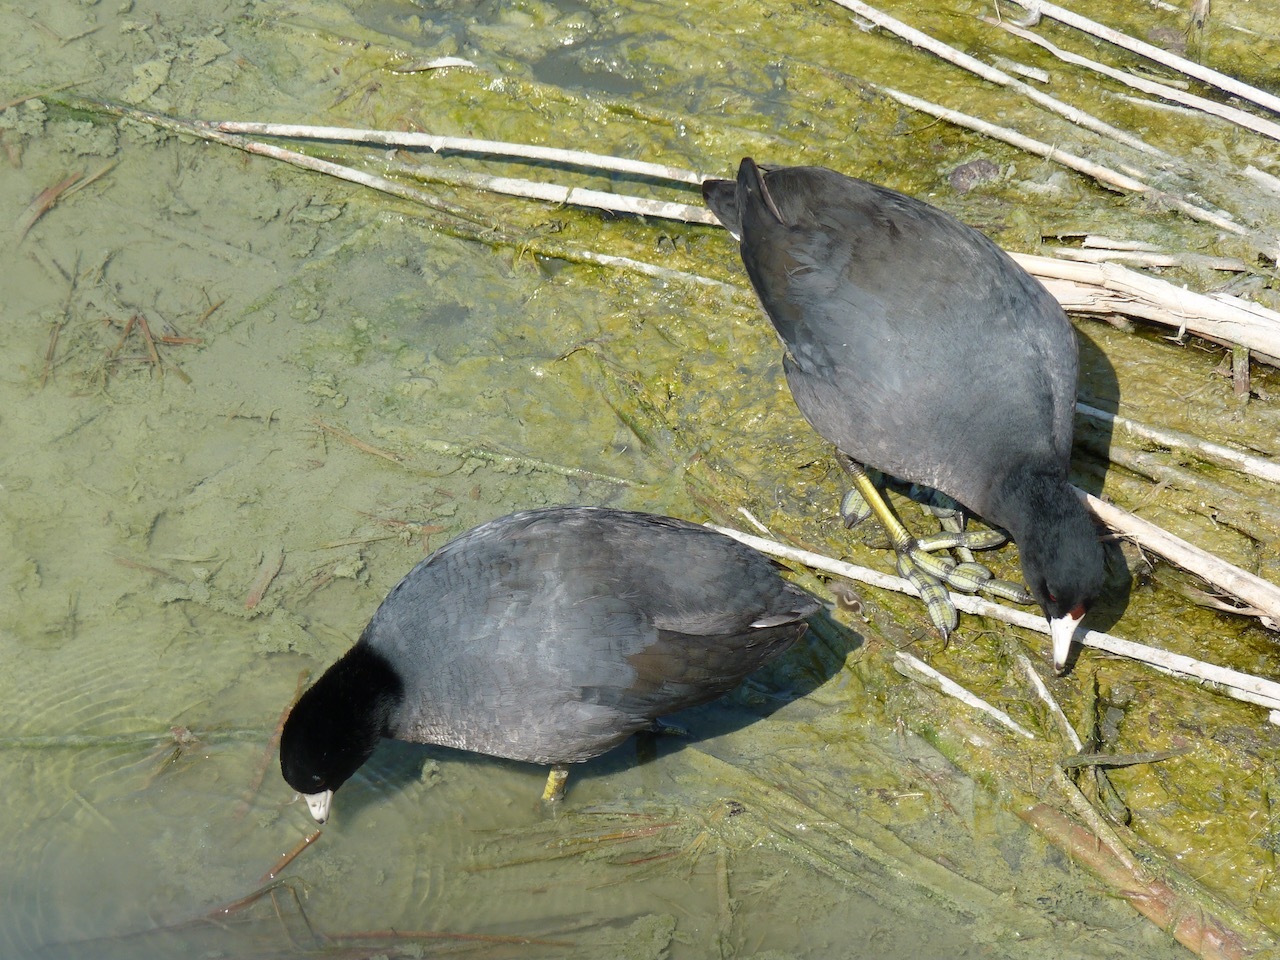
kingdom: Animalia
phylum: Chordata
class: Aves
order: Gruiformes
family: Rallidae
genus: Fulica
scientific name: Fulica americana
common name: American coot
